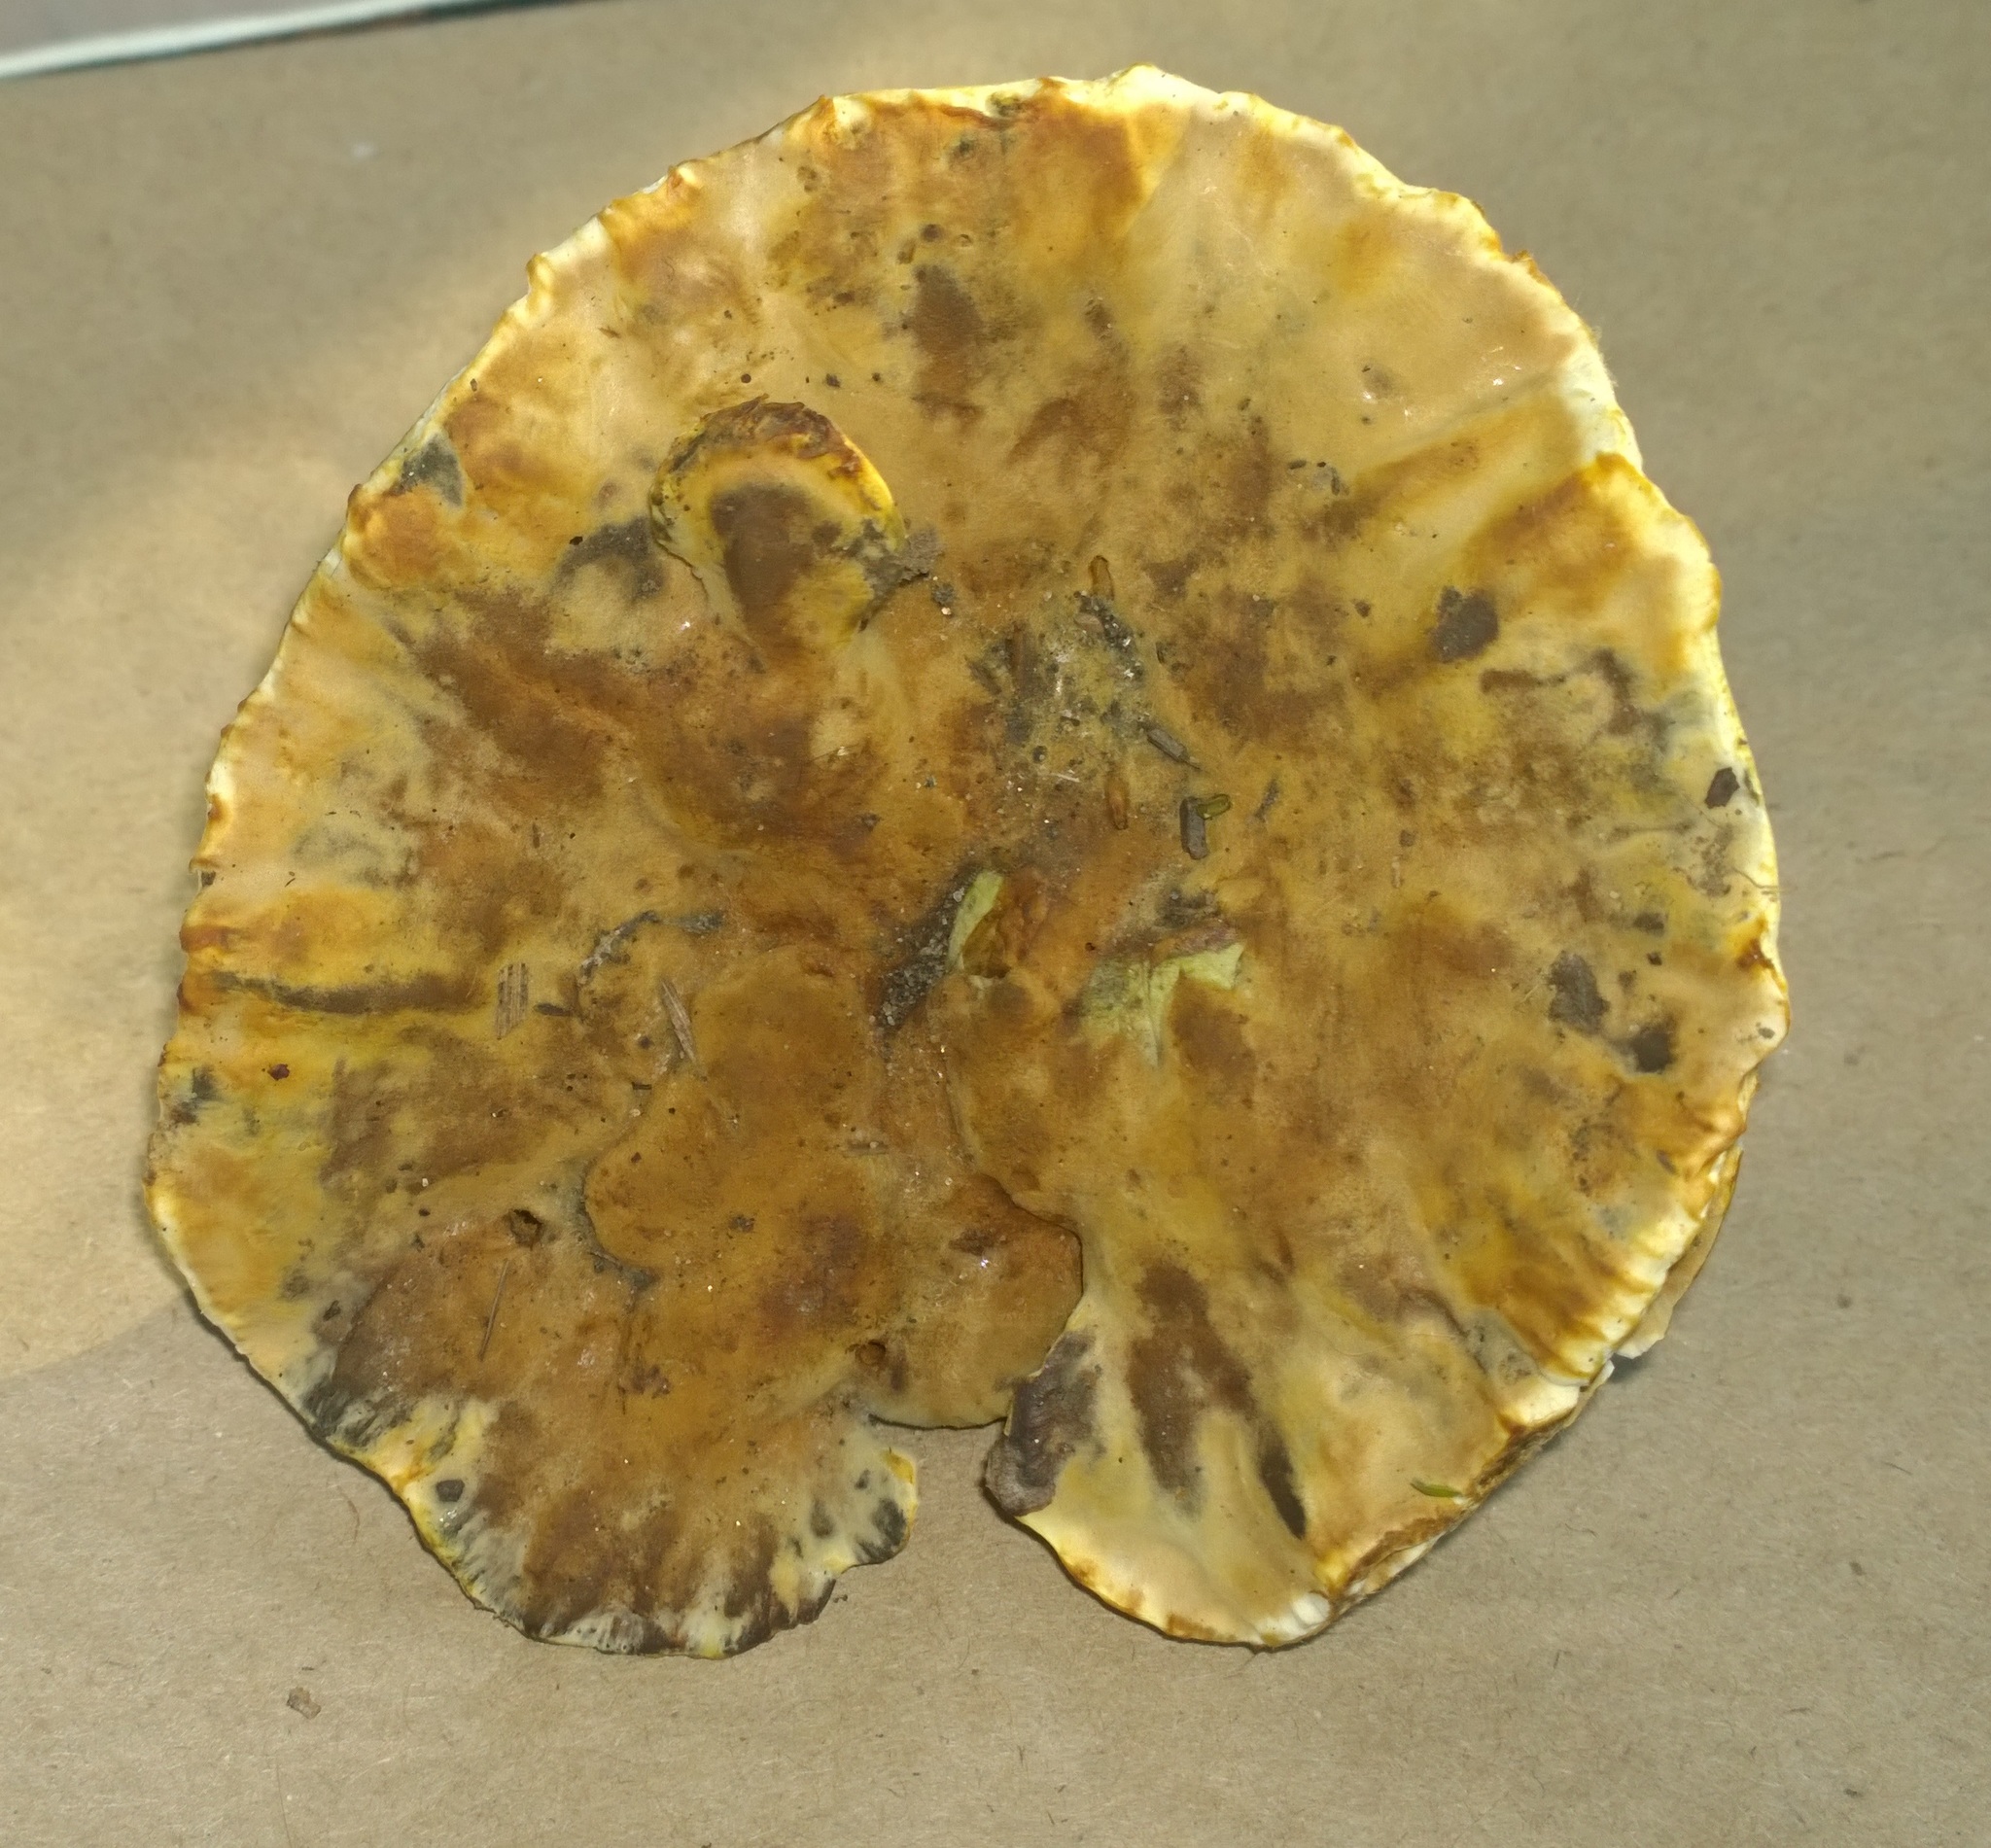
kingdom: Fungi
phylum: Basidiomycota
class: Agaricomycetes
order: Hymenochaetales
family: Hymenochaetaceae
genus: Onnia
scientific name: Onnia tomentosa
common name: Velvet rosette
